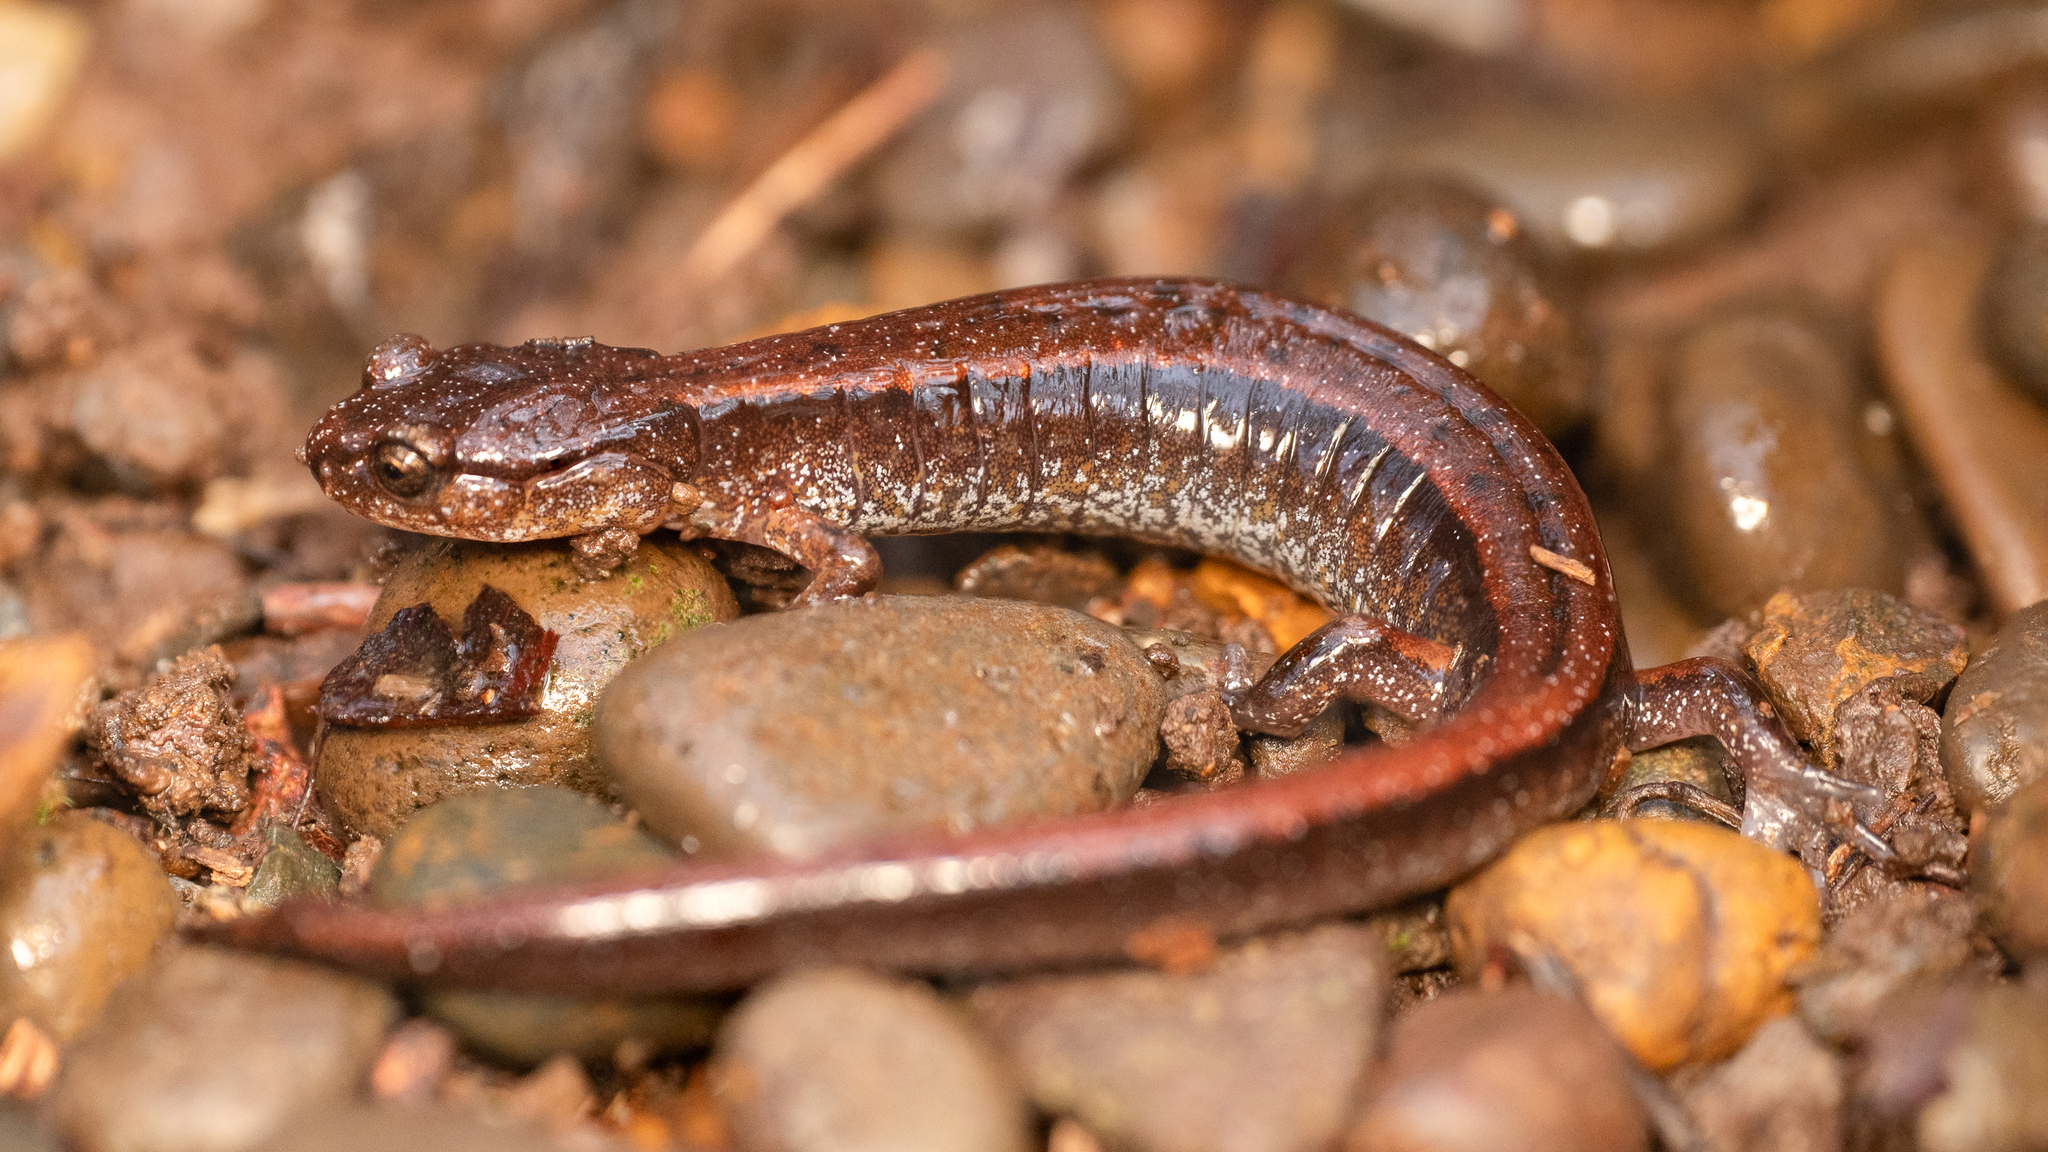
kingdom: Animalia
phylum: Chordata
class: Amphibia
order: Caudata
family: Plethodontidae
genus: Plethodon
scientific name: Plethodon vehiculum
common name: Western red-backed salamander
